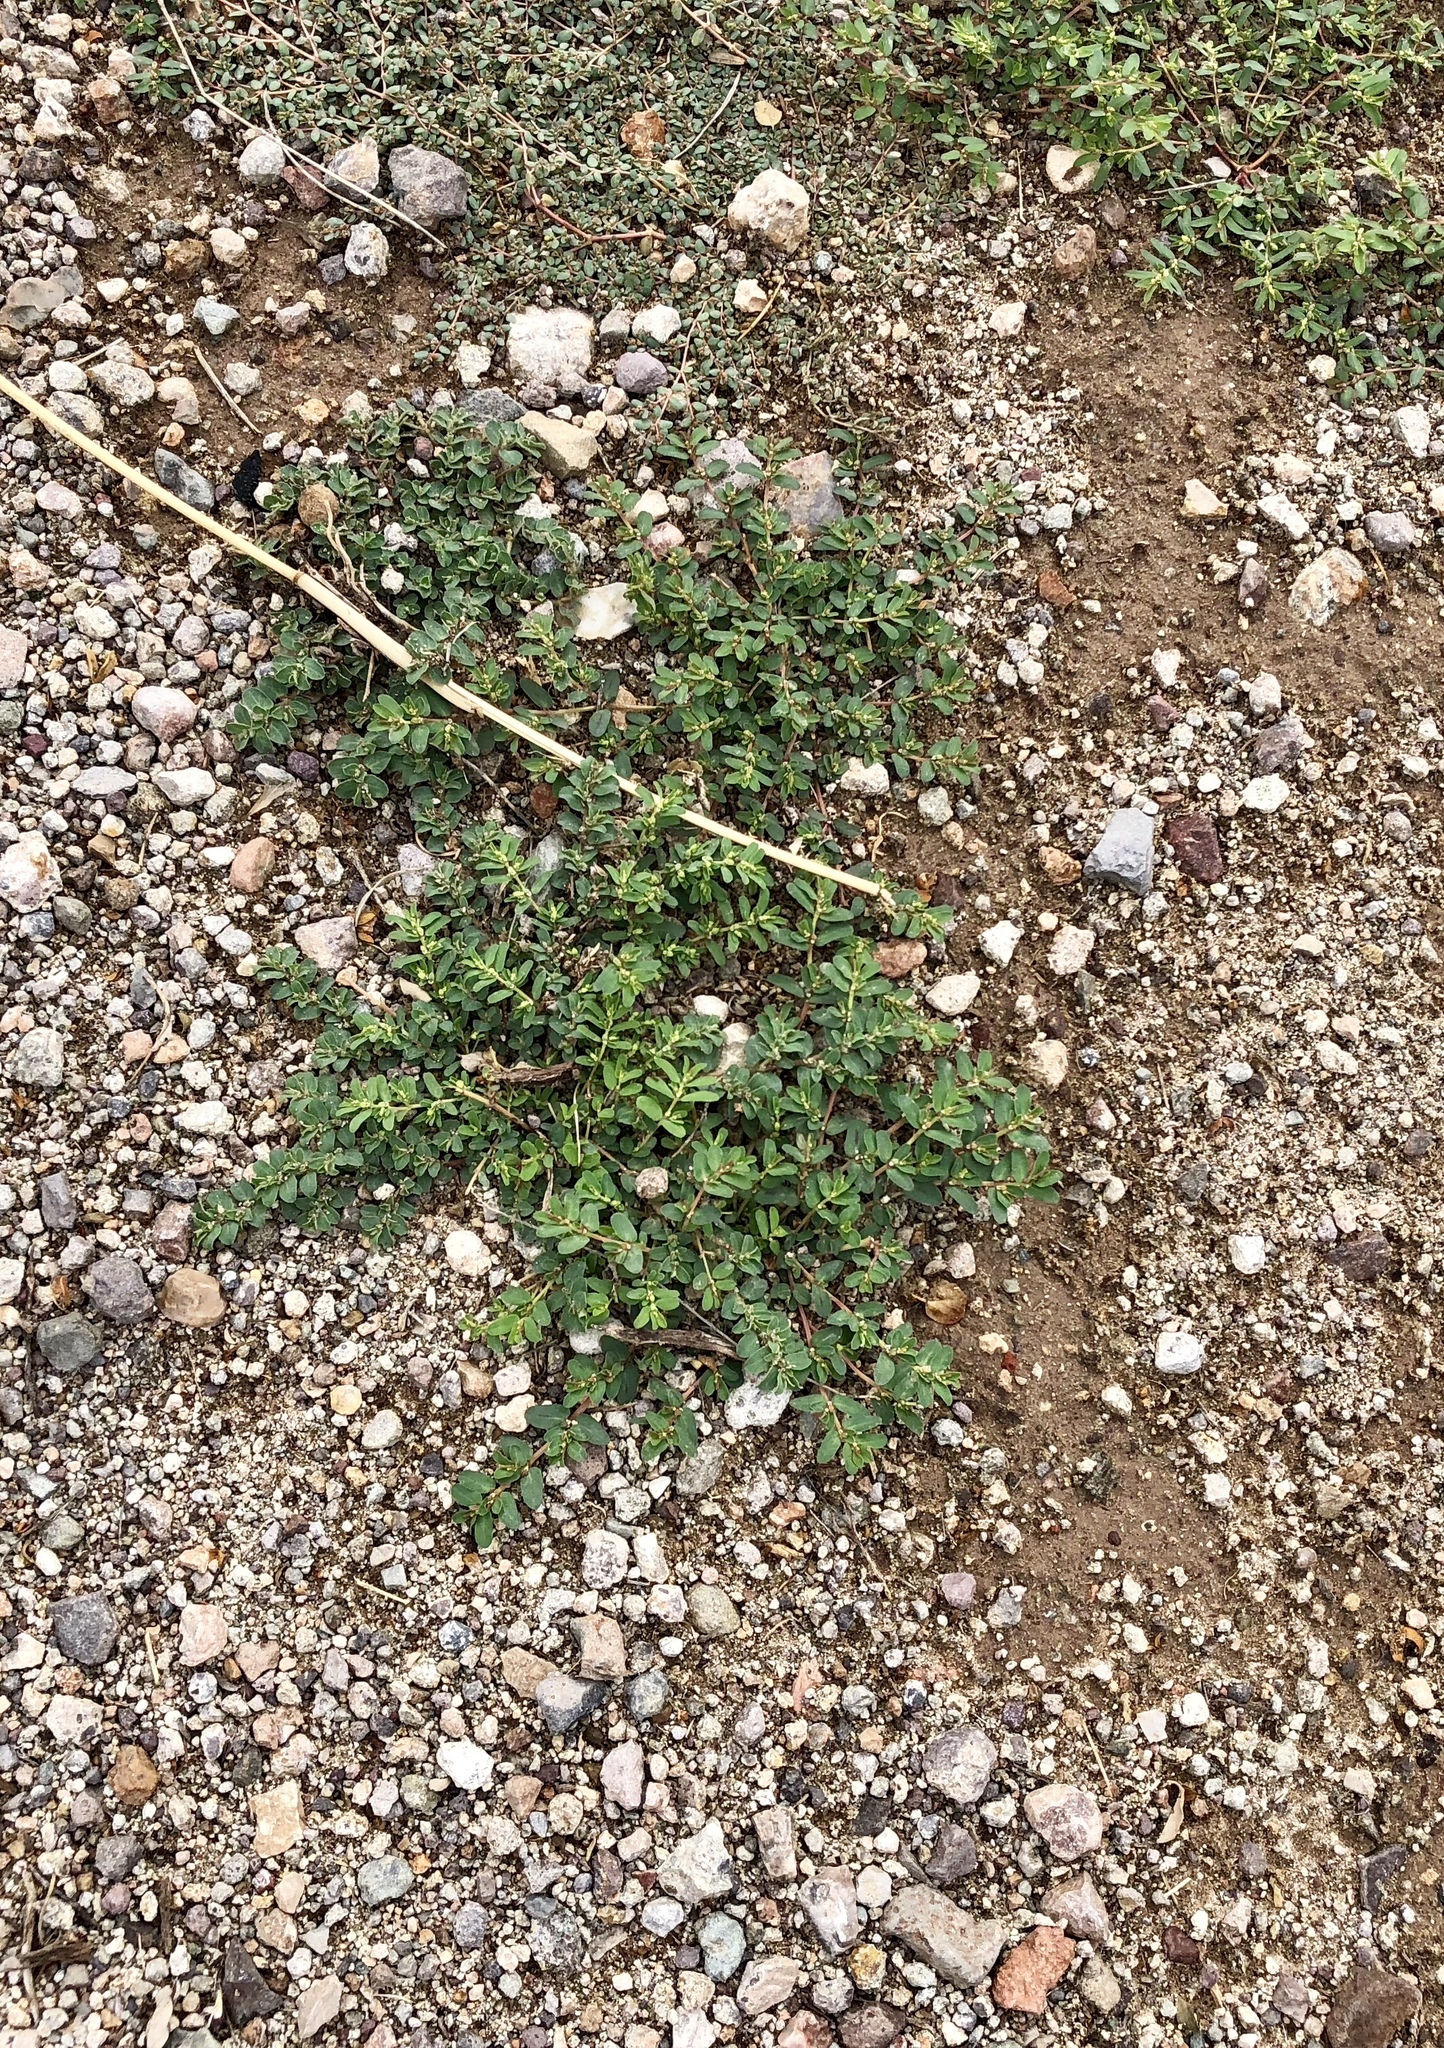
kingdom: Plantae
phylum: Tracheophyta
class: Magnoliopsida
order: Malpighiales
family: Euphorbiaceae
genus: Euphorbia
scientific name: Euphorbia serpillifolia
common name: Thyme-leaf spurge
